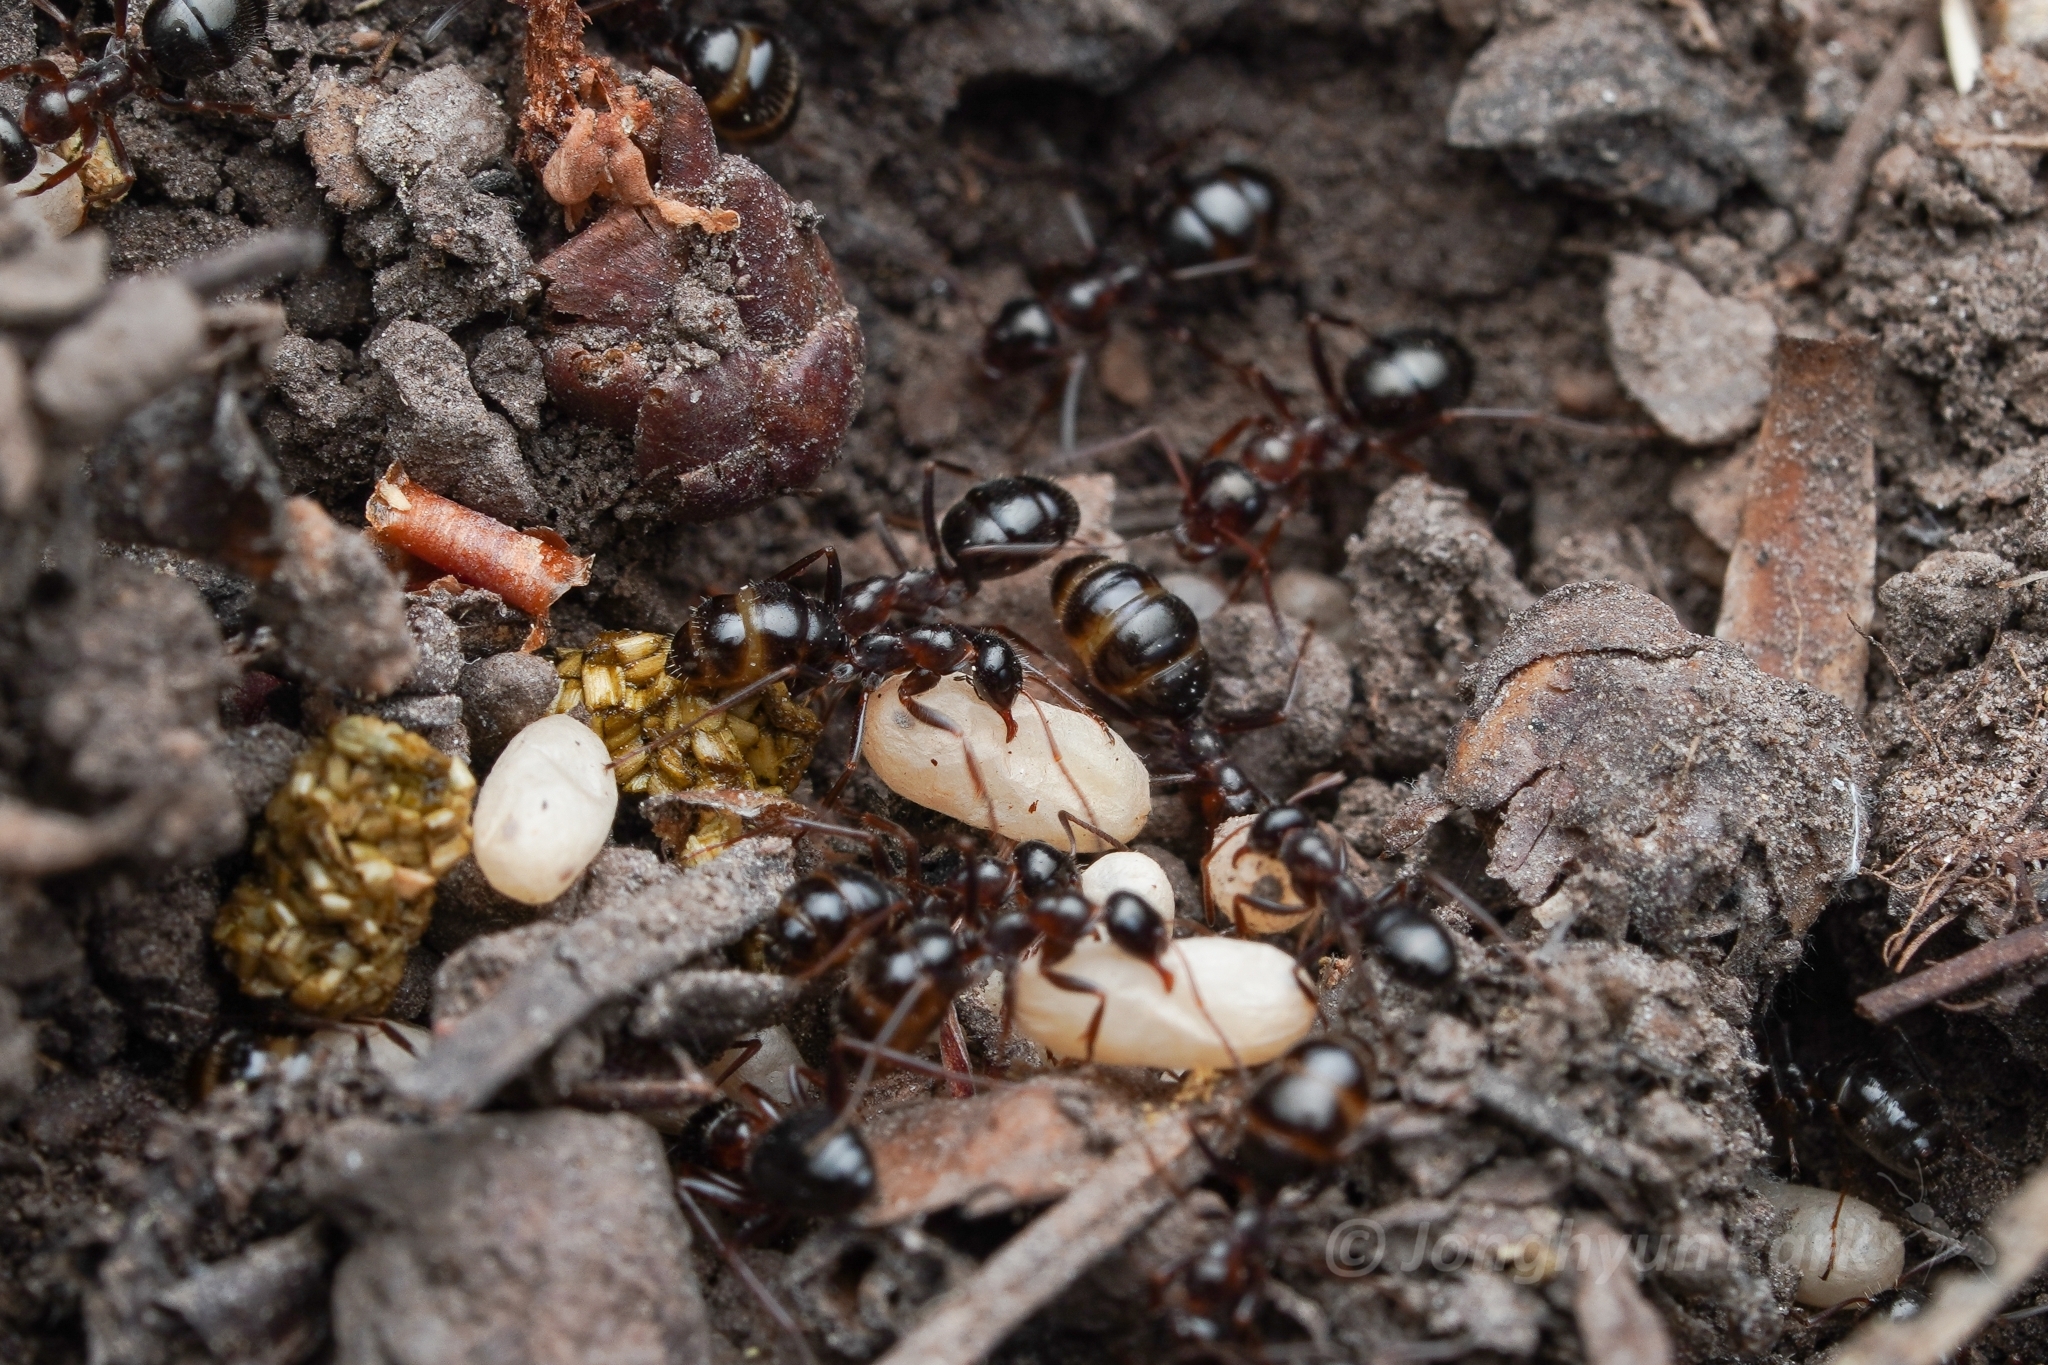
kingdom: Animalia
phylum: Arthropoda
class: Insecta
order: Hymenoptera
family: Formicidae
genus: Formica
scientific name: Formica neogagates
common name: New world black ant
